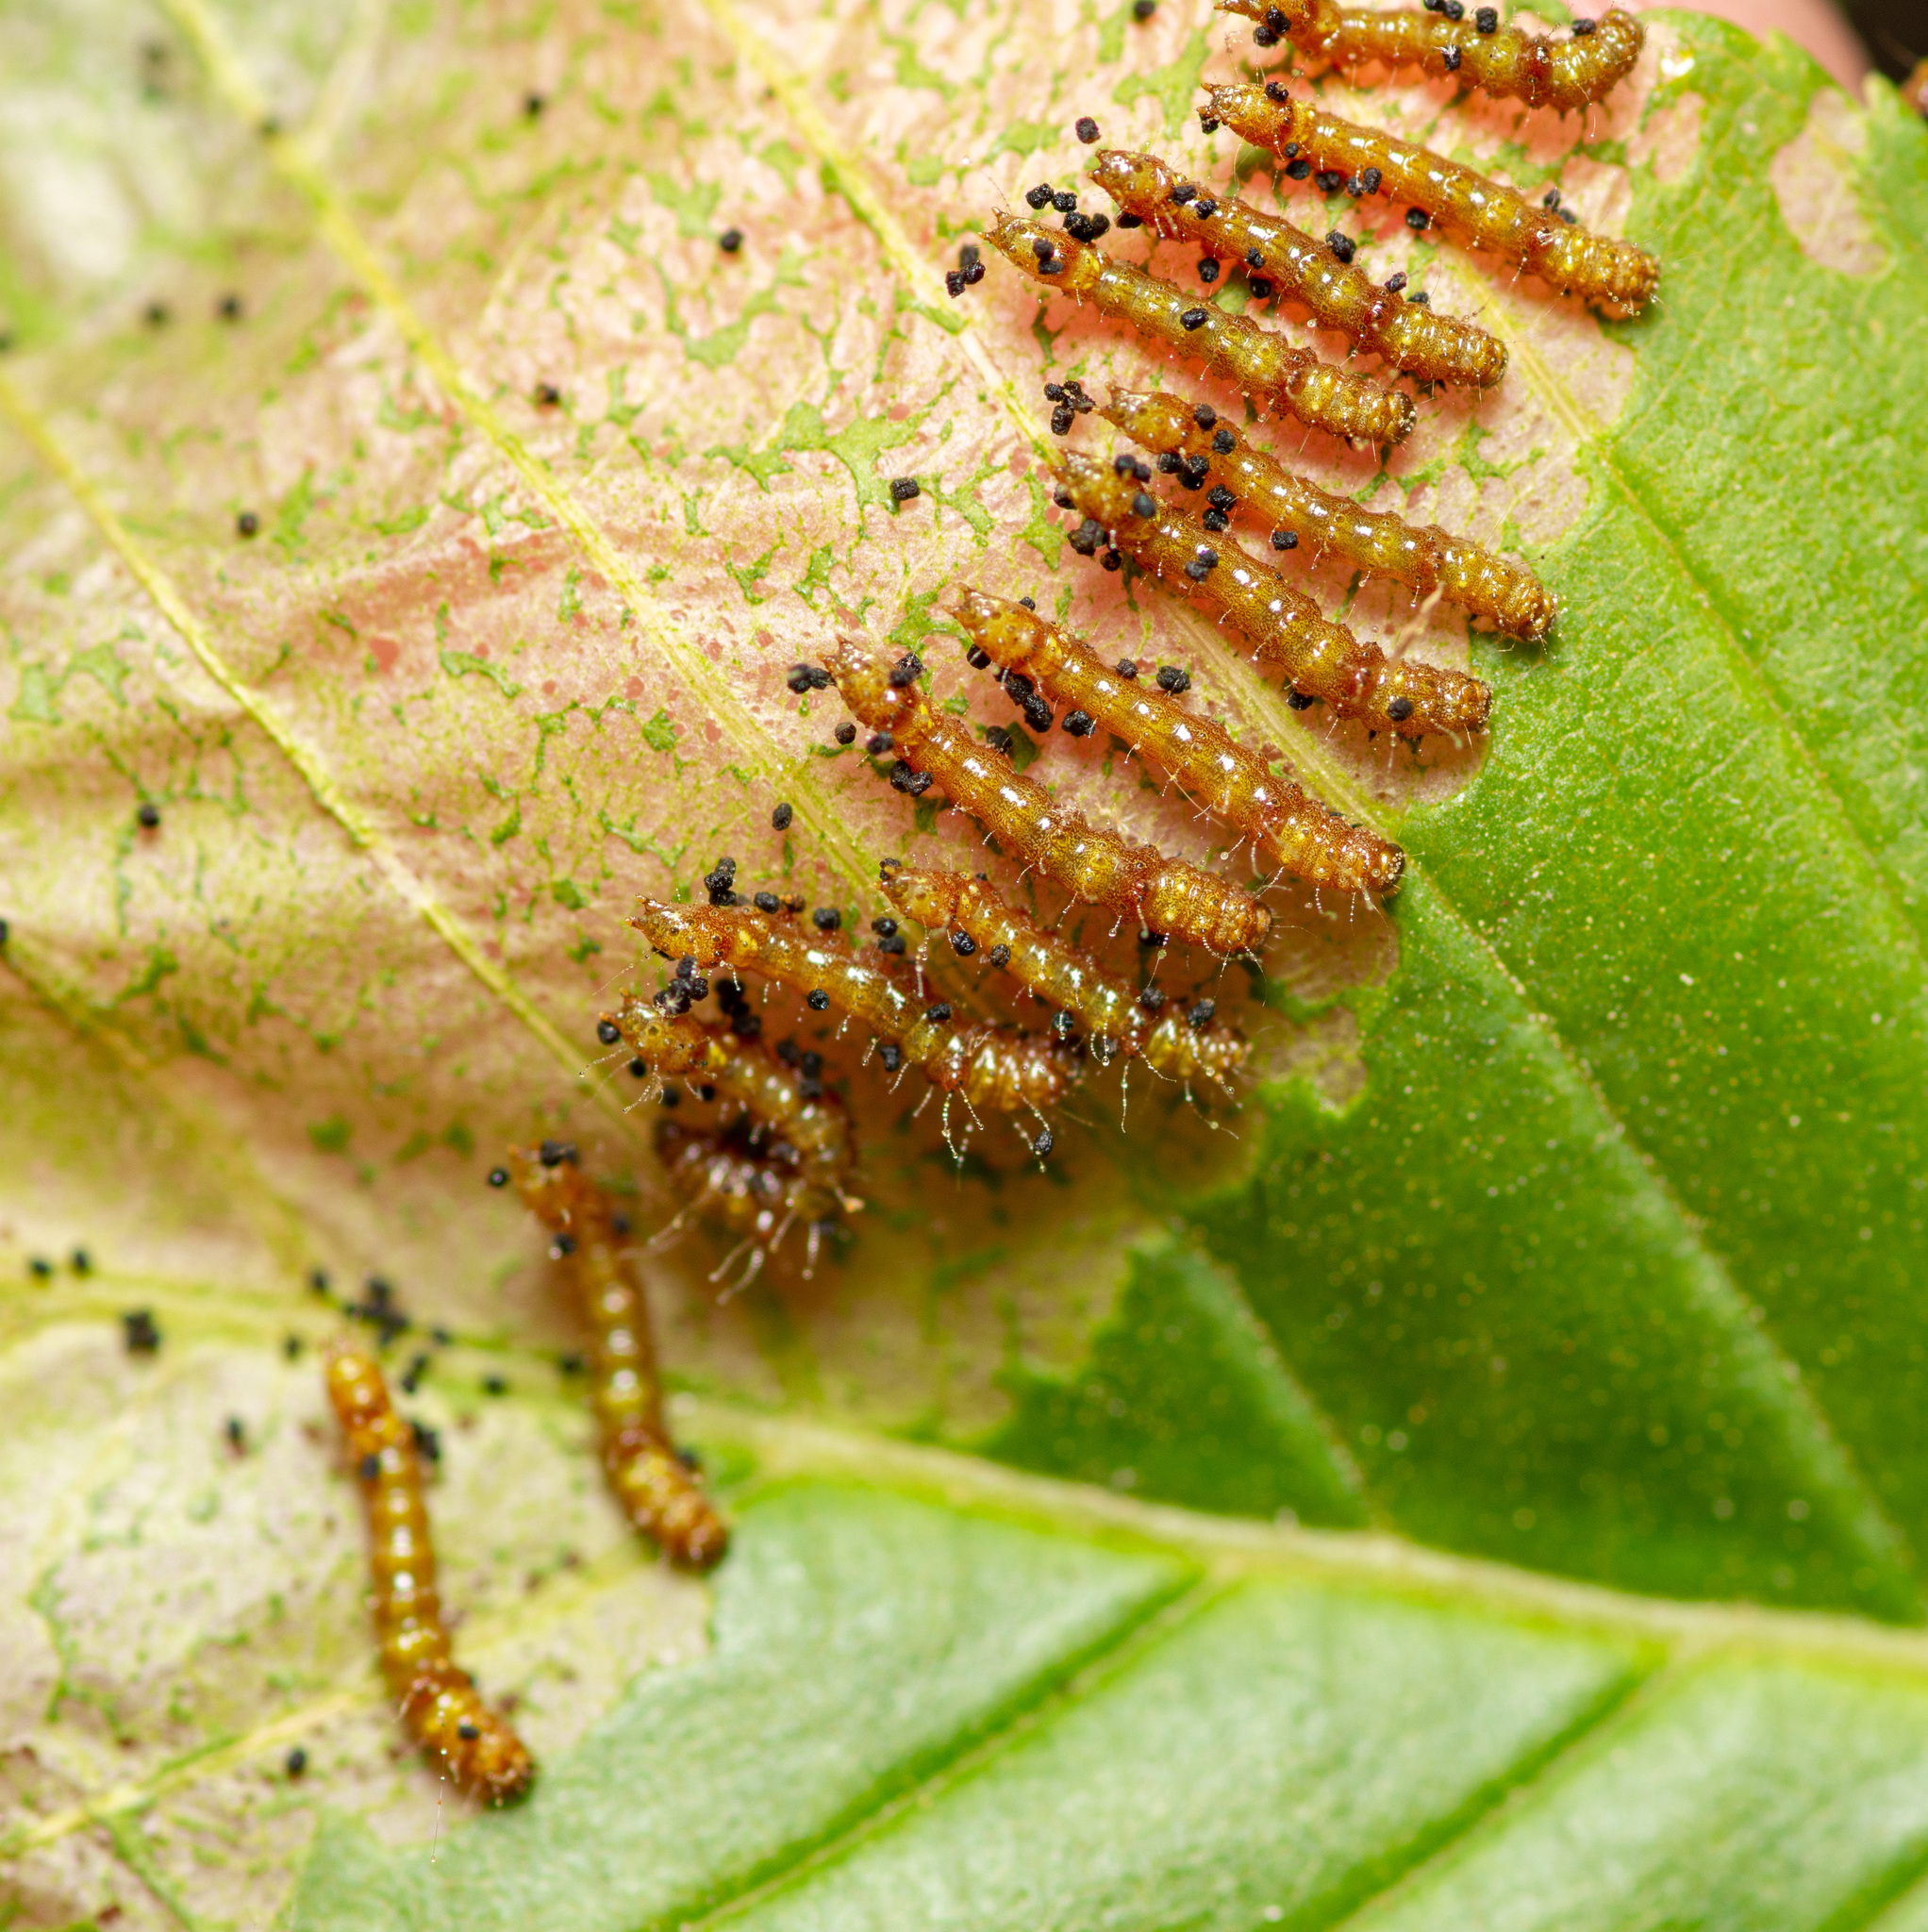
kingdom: Animalia
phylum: Arthropoda
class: Insecta
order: Lepidoptera
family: Notodontidae
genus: Schizura
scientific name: Schizura
